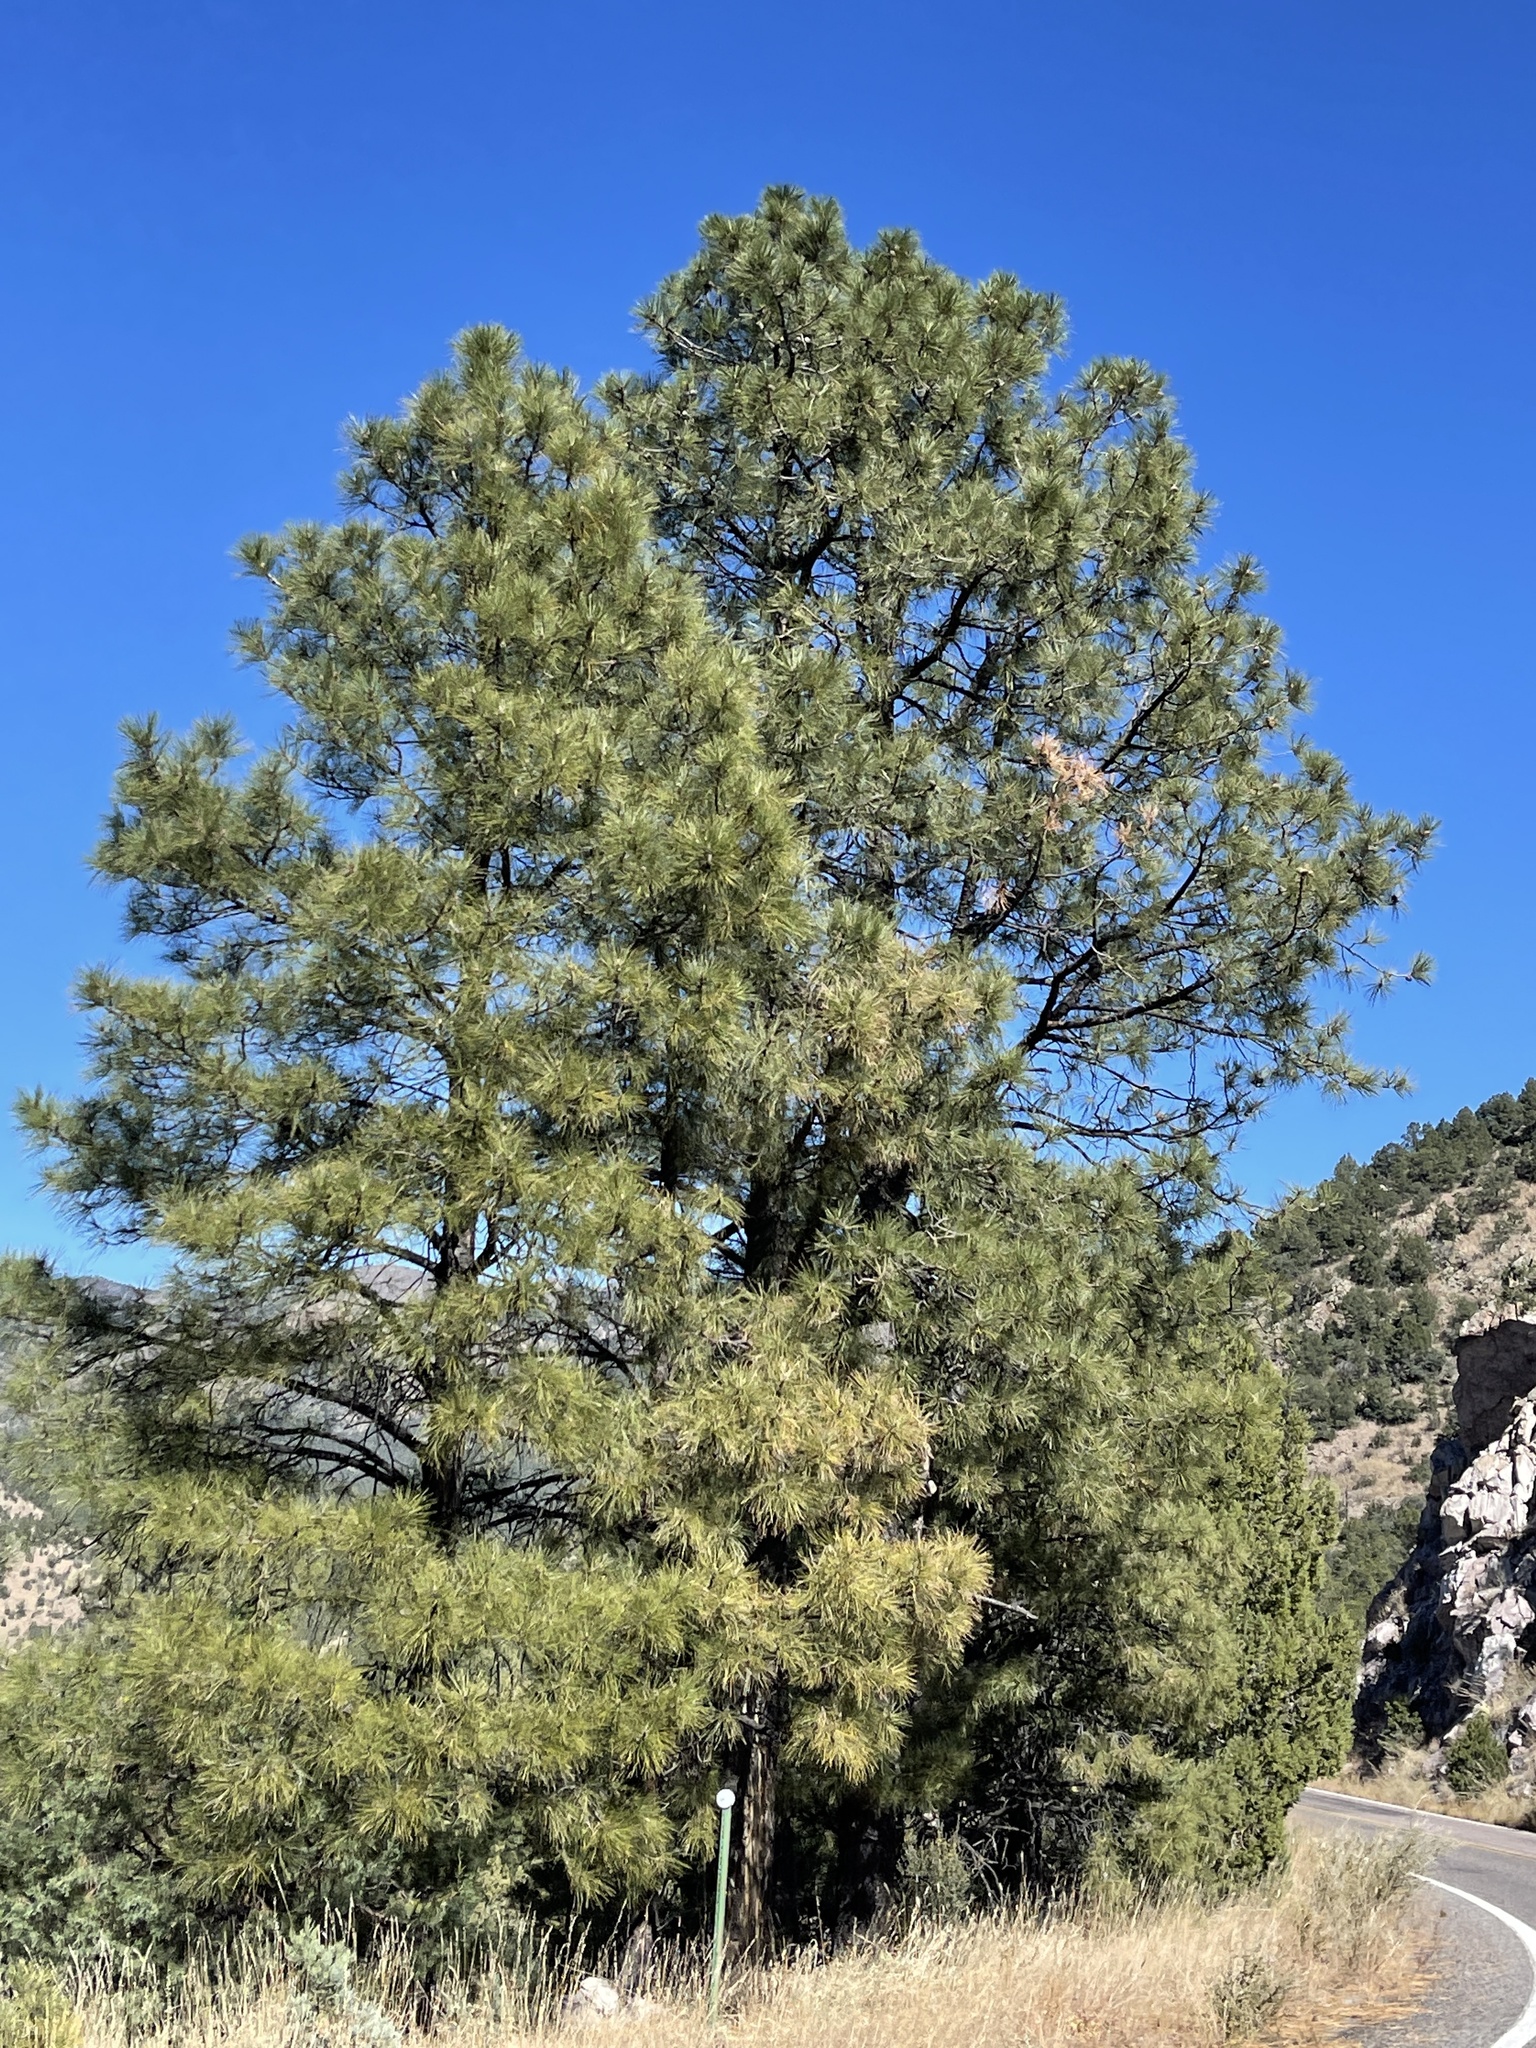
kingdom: Plantae
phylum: Tracheophyta
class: Pinopsida
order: Pinales
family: Pinaceae
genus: Pinus
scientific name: Pinus ponderosa
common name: Western yellow-pine
